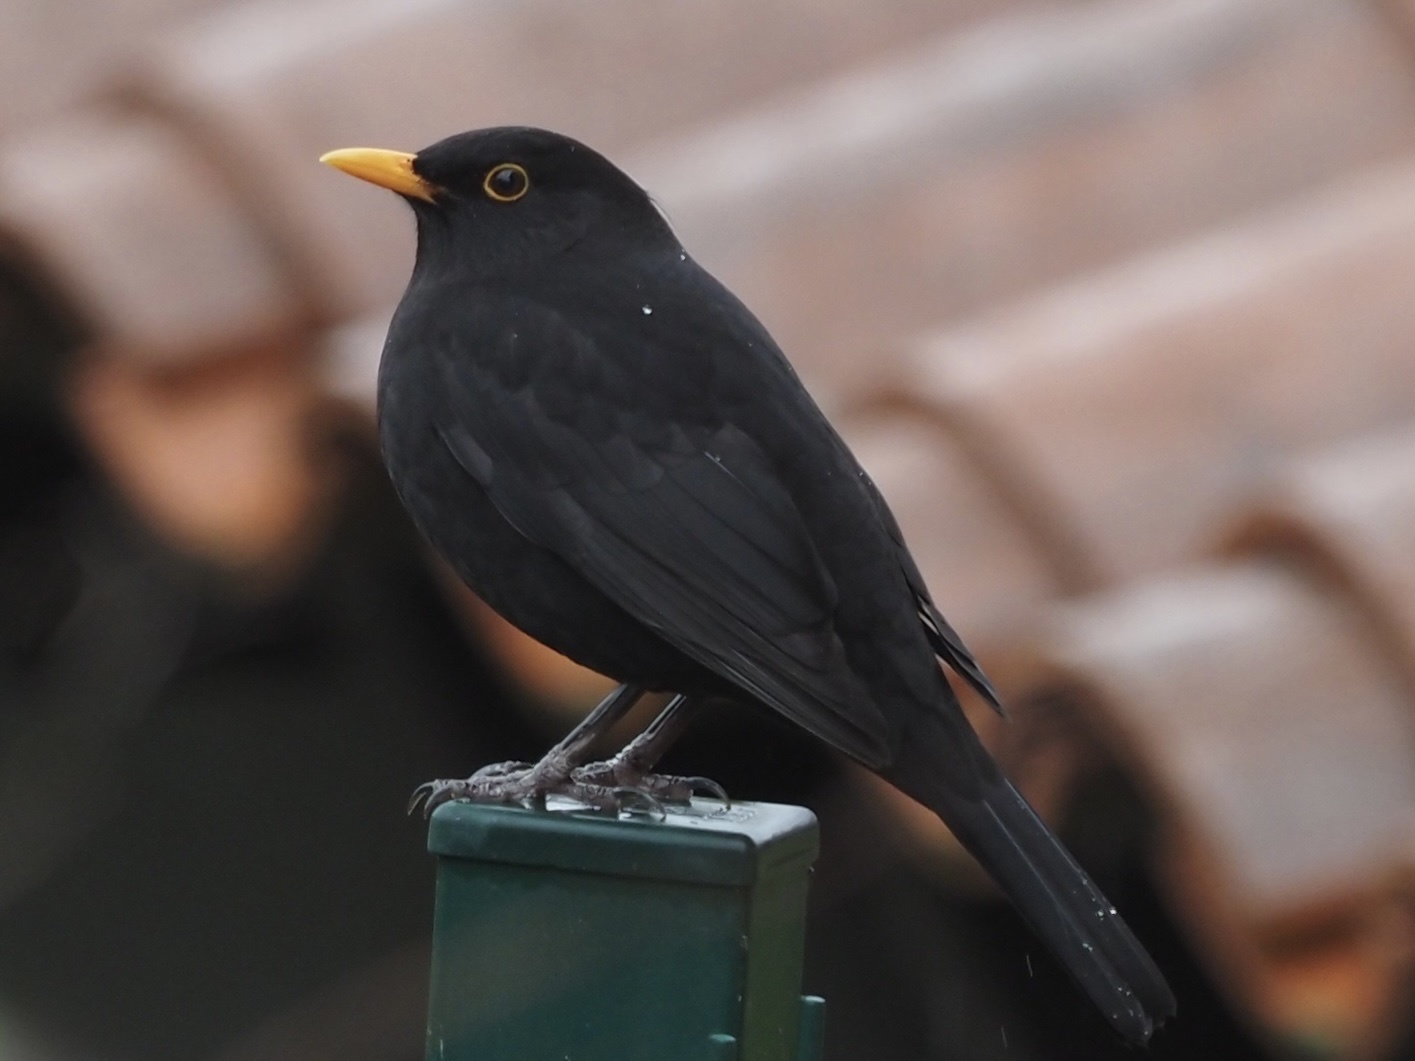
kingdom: Animalia
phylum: Chordata
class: Aves
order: Passeriformes
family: Turdidae
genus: Turdus
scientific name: Turdus merula
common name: Common blackbird
